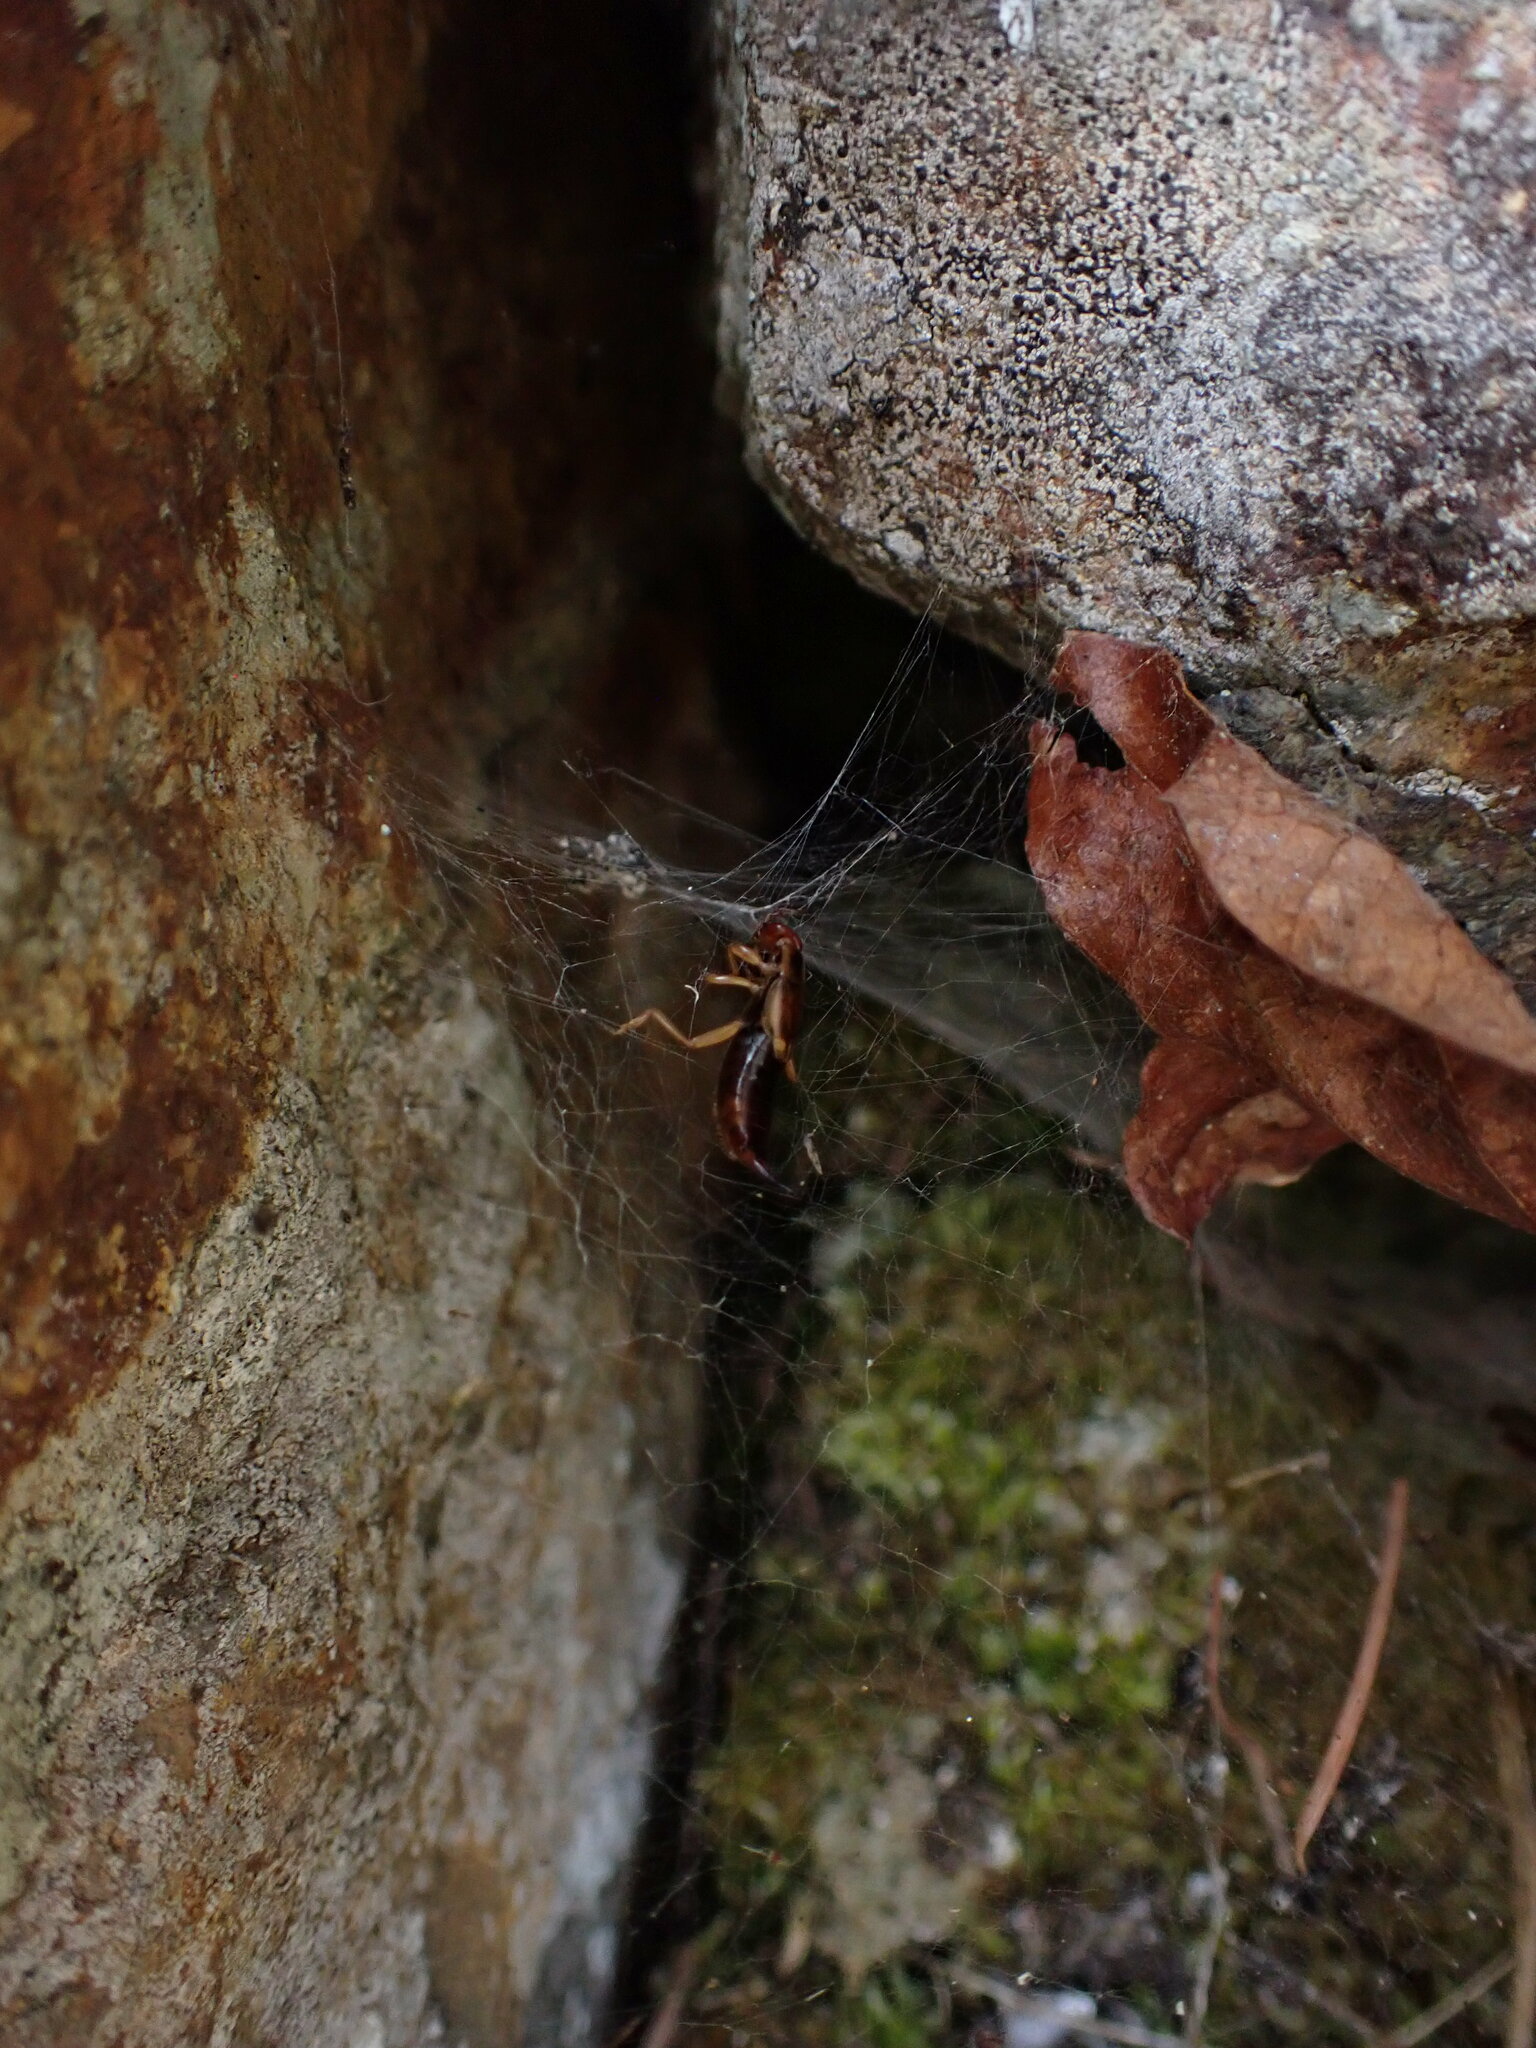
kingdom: Animalia
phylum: Arthropoda
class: Insecta
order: Dermaptera
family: Forficulidae
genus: Forficula
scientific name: Forficula dentata
